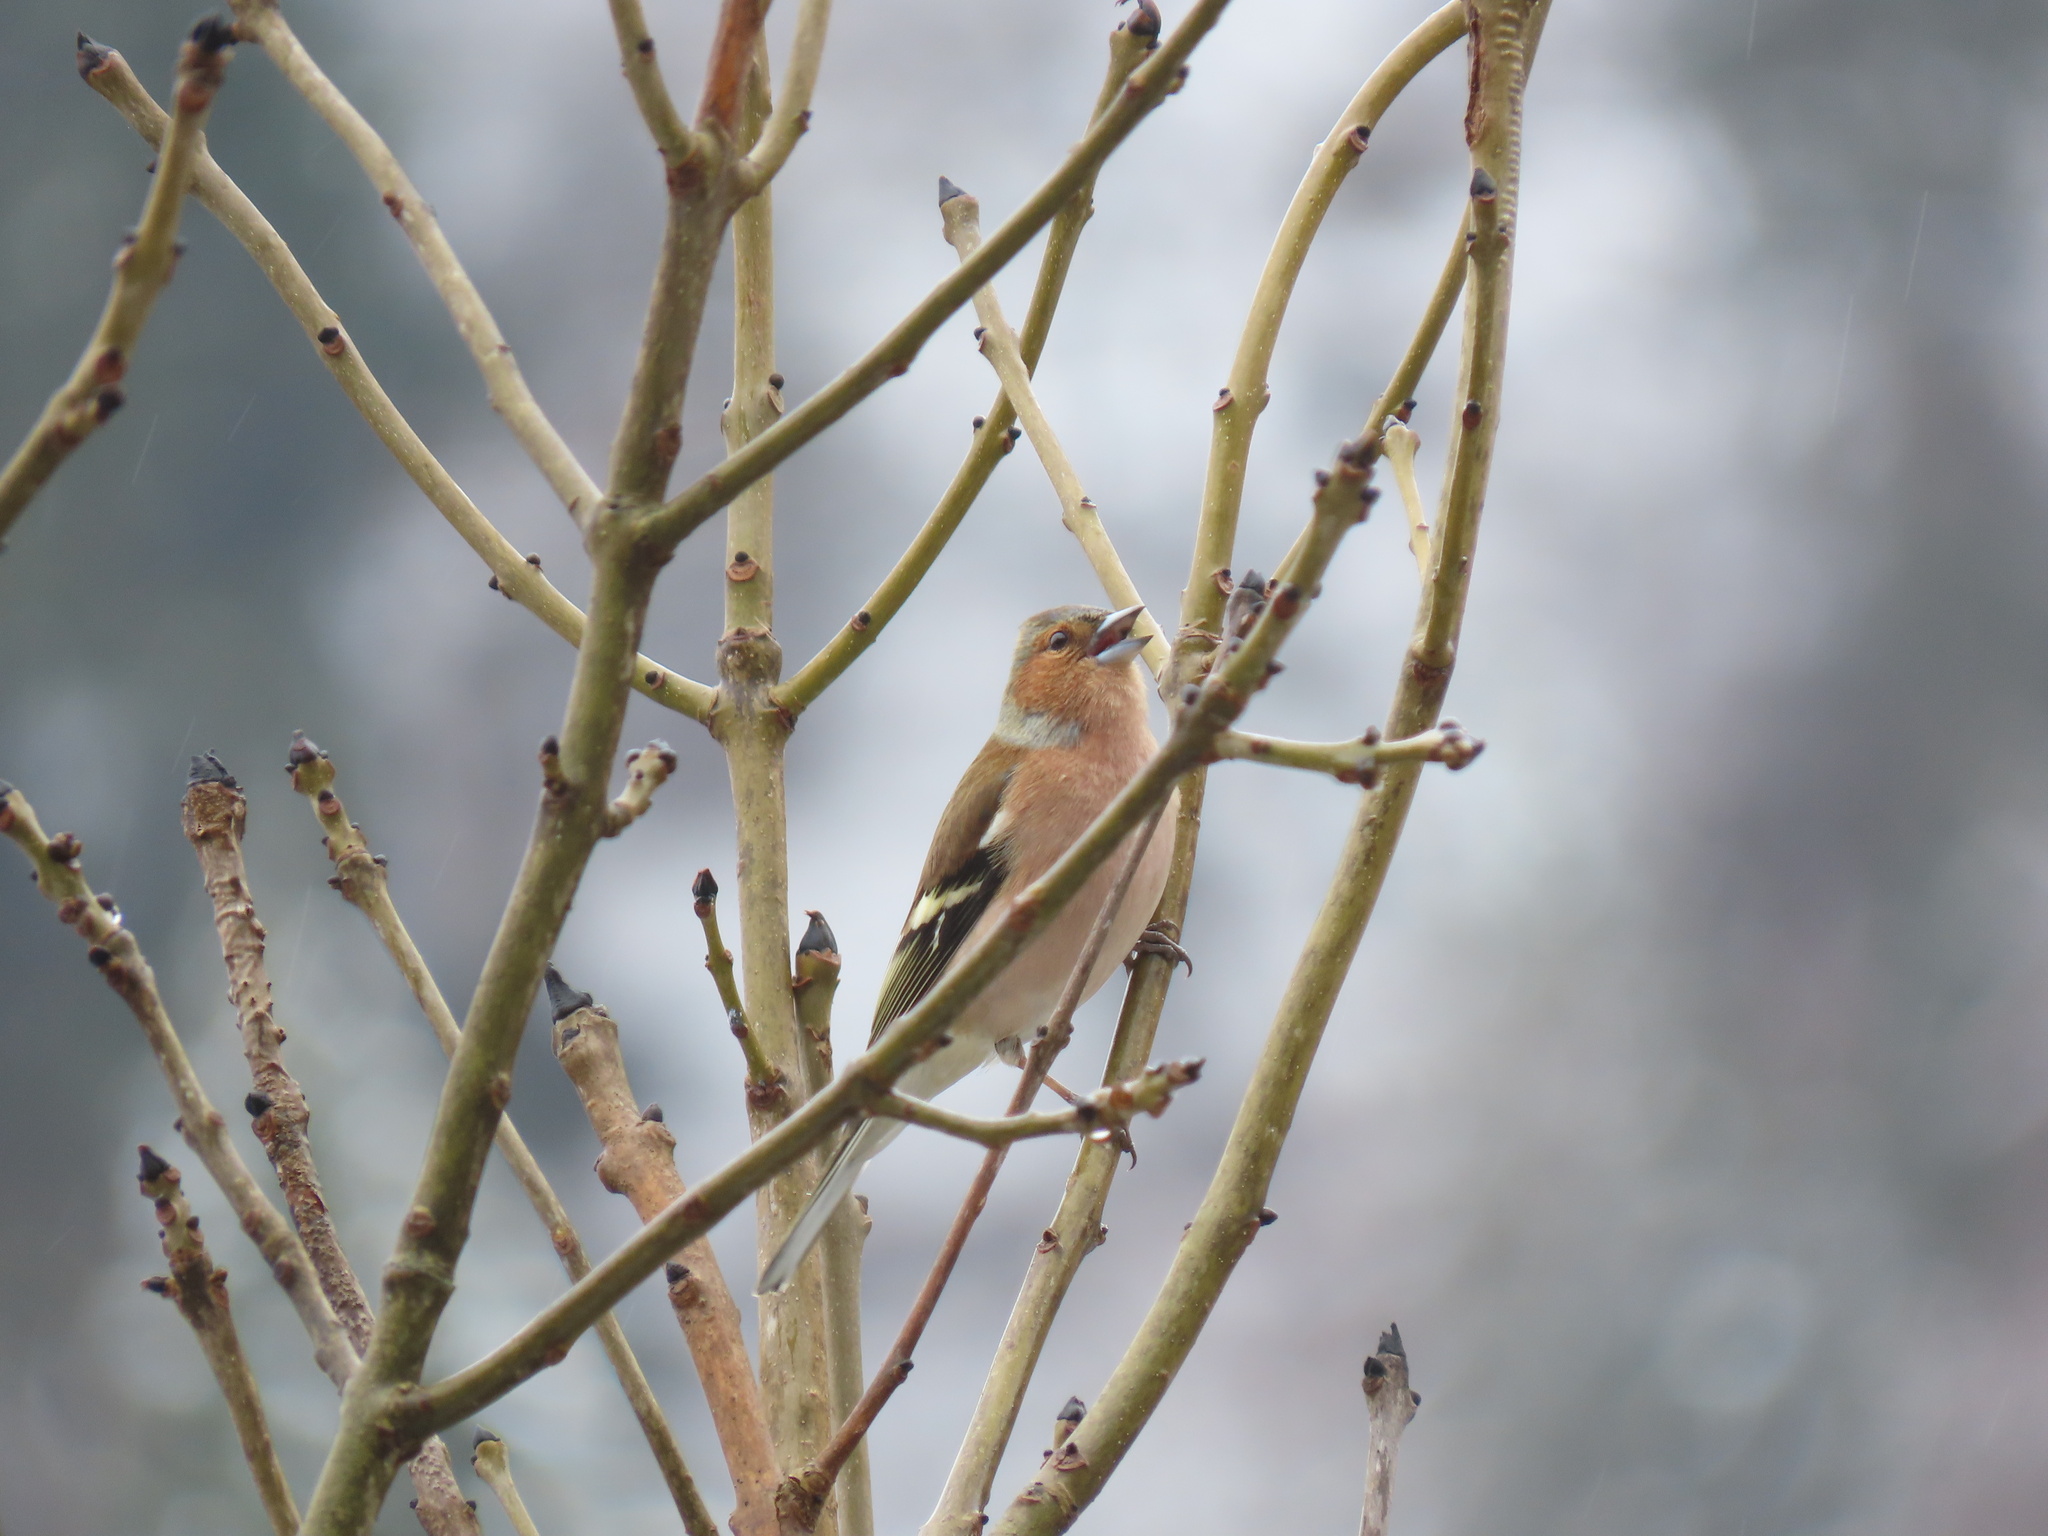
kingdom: Animalia
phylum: Chordata
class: Aves
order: Passeriformes
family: Fringillidae
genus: Fringilla
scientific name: Fringilla coelebs
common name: Common chaffinch
